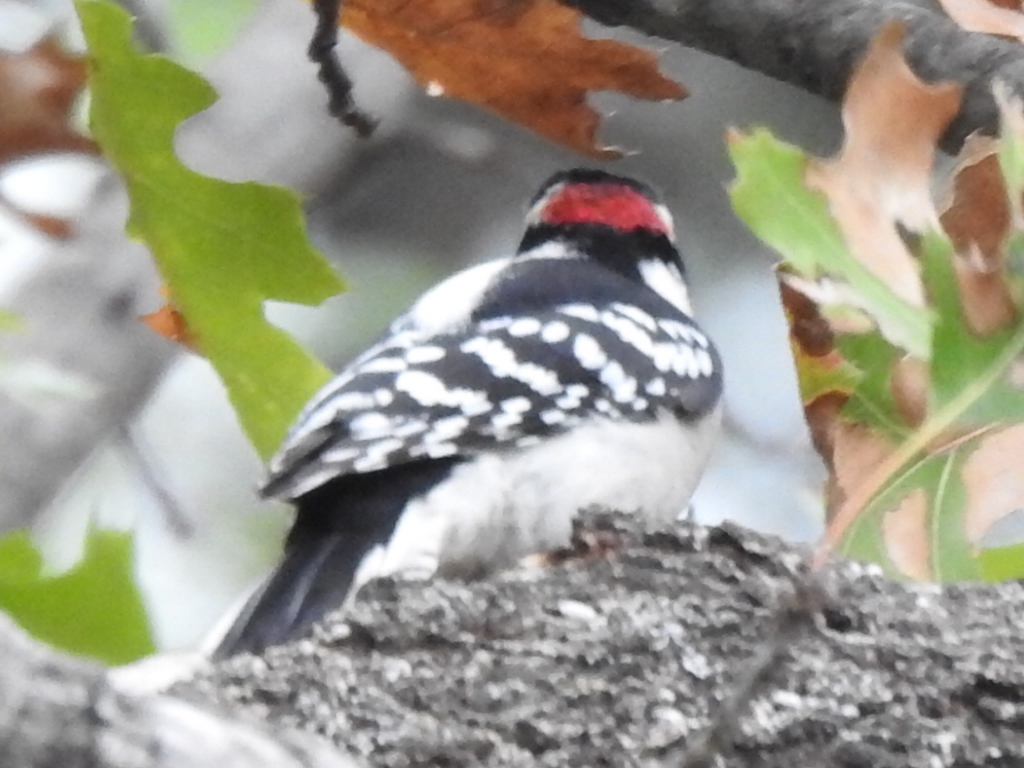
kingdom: Animalia
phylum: Chordata
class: Aves
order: Piciformes
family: Picidae
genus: Dryobates
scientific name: Dryobates pubescens
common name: Downy woodpecker
